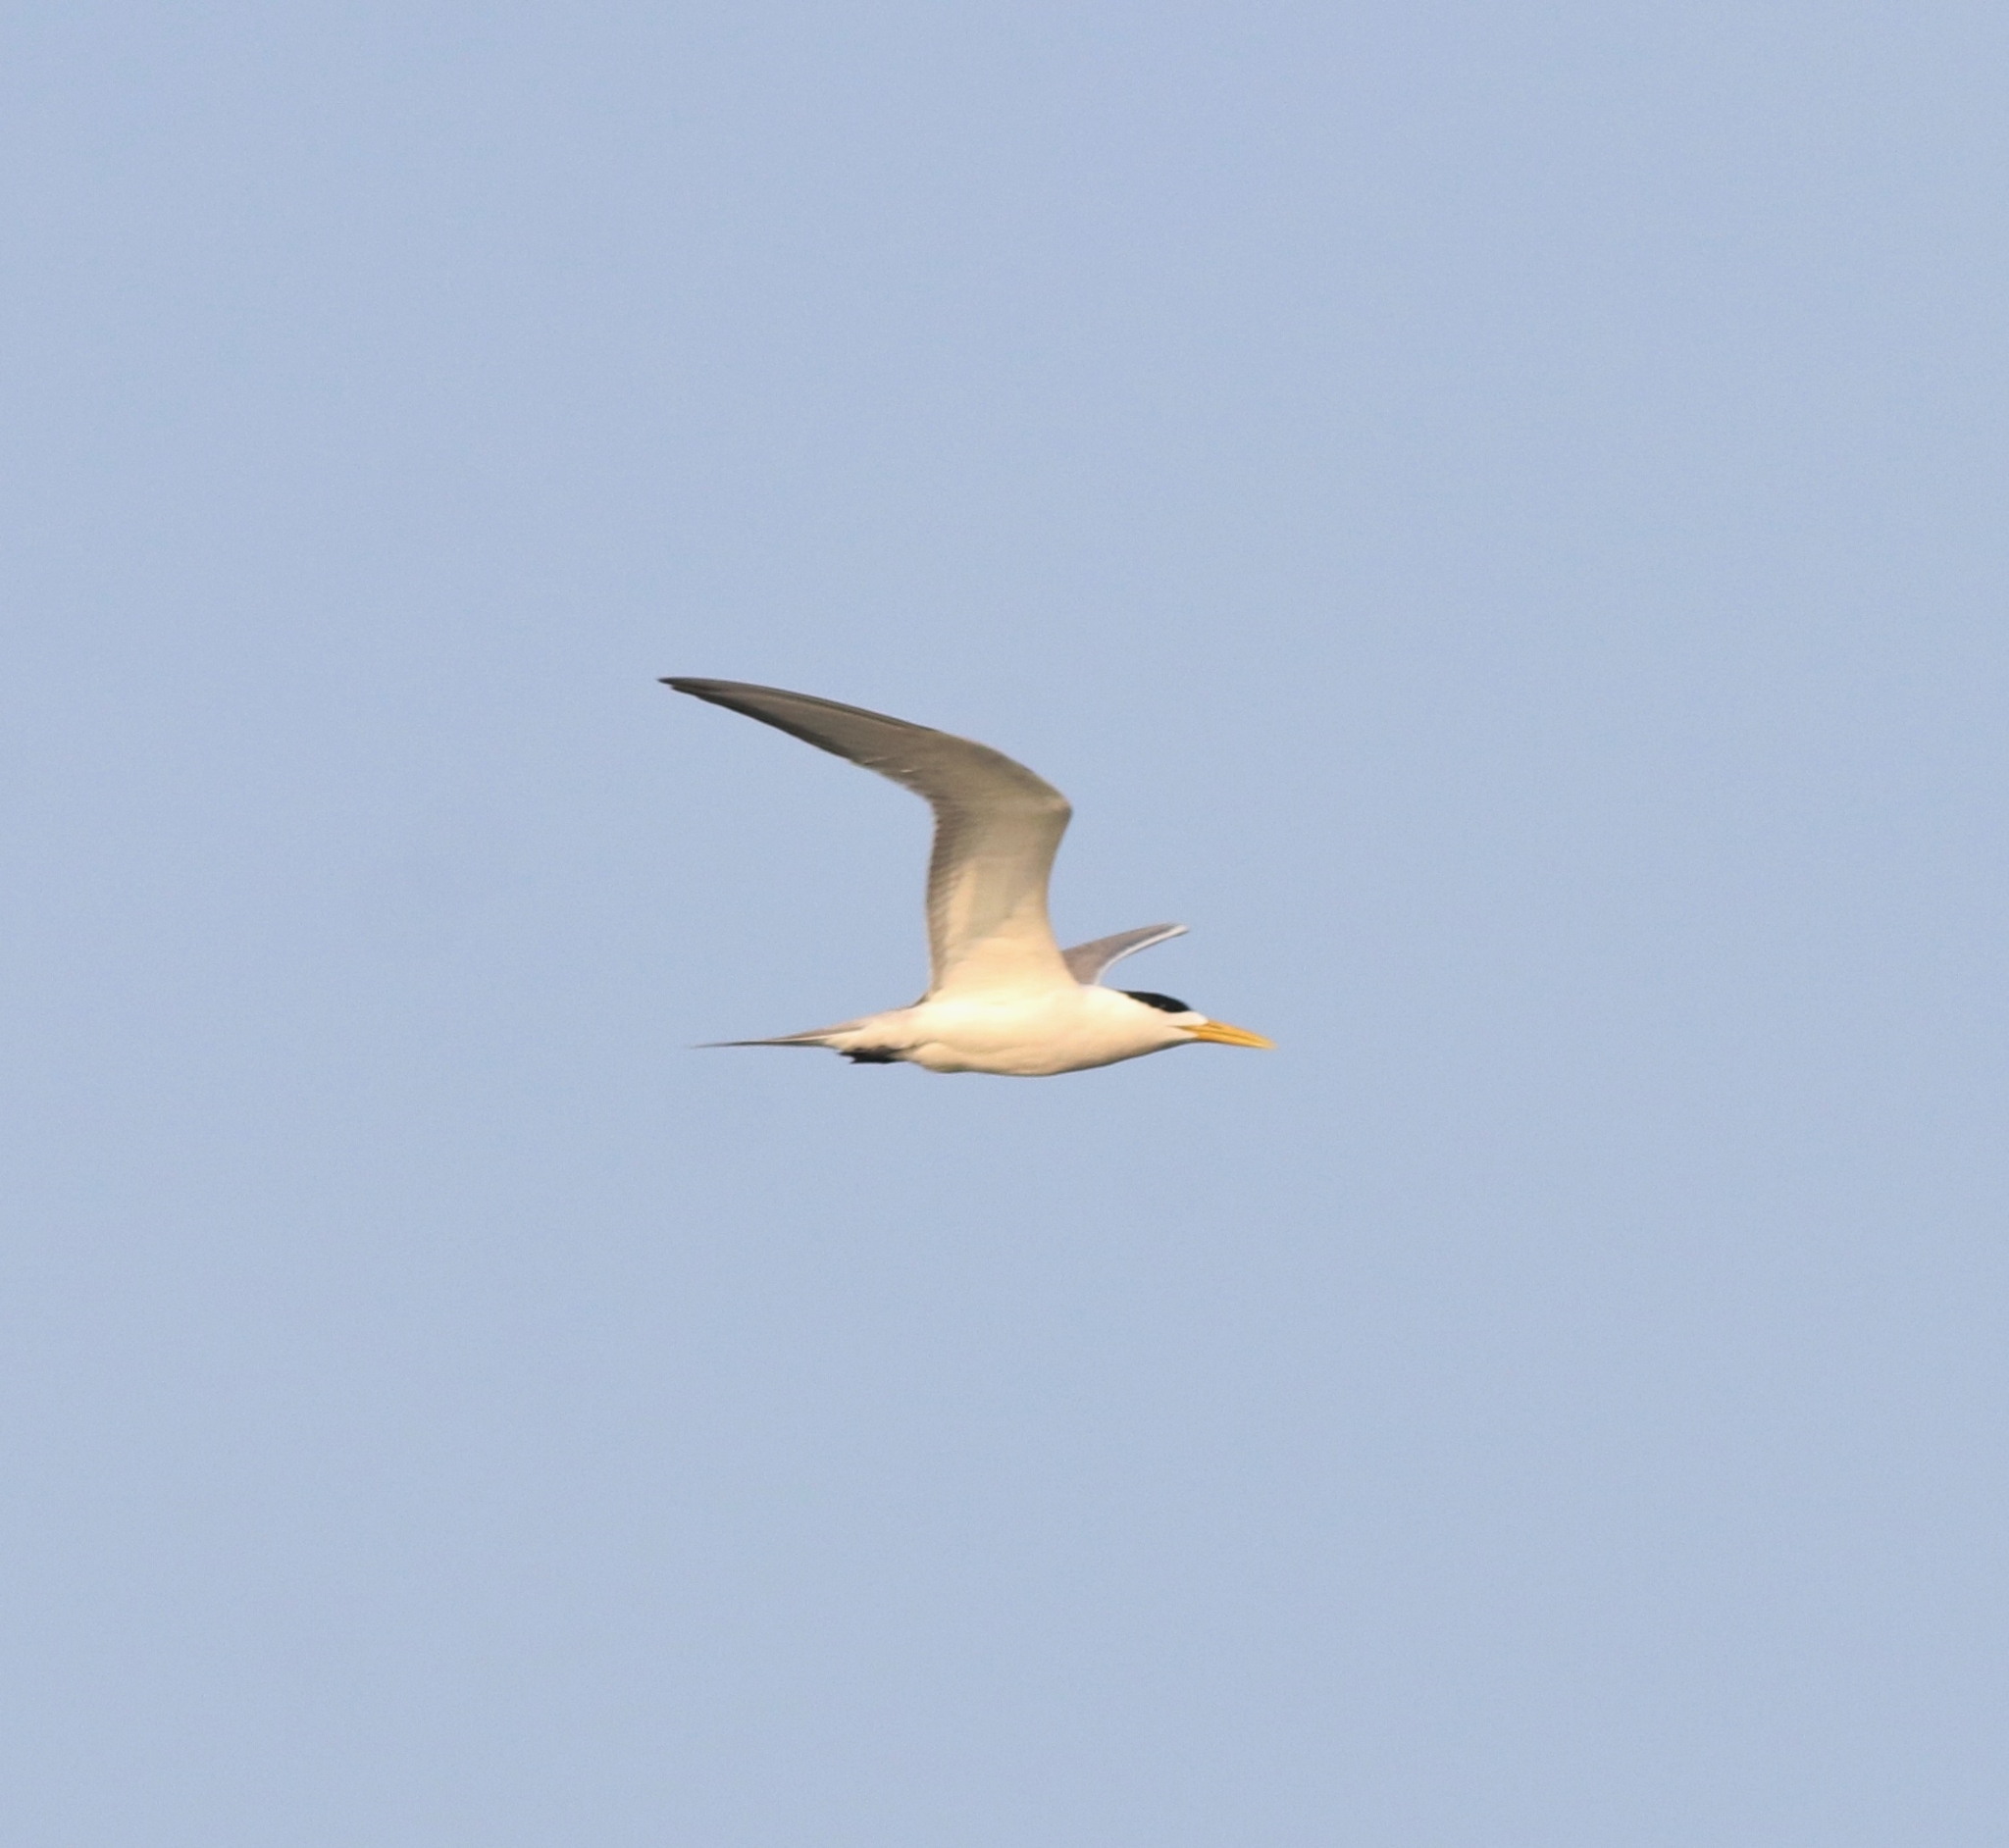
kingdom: Animalia
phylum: Chordata
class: Aves
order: Charadriiformes
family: Laridae
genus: Thalasseus
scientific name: Thalasseus bergii
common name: Greater crested tern
